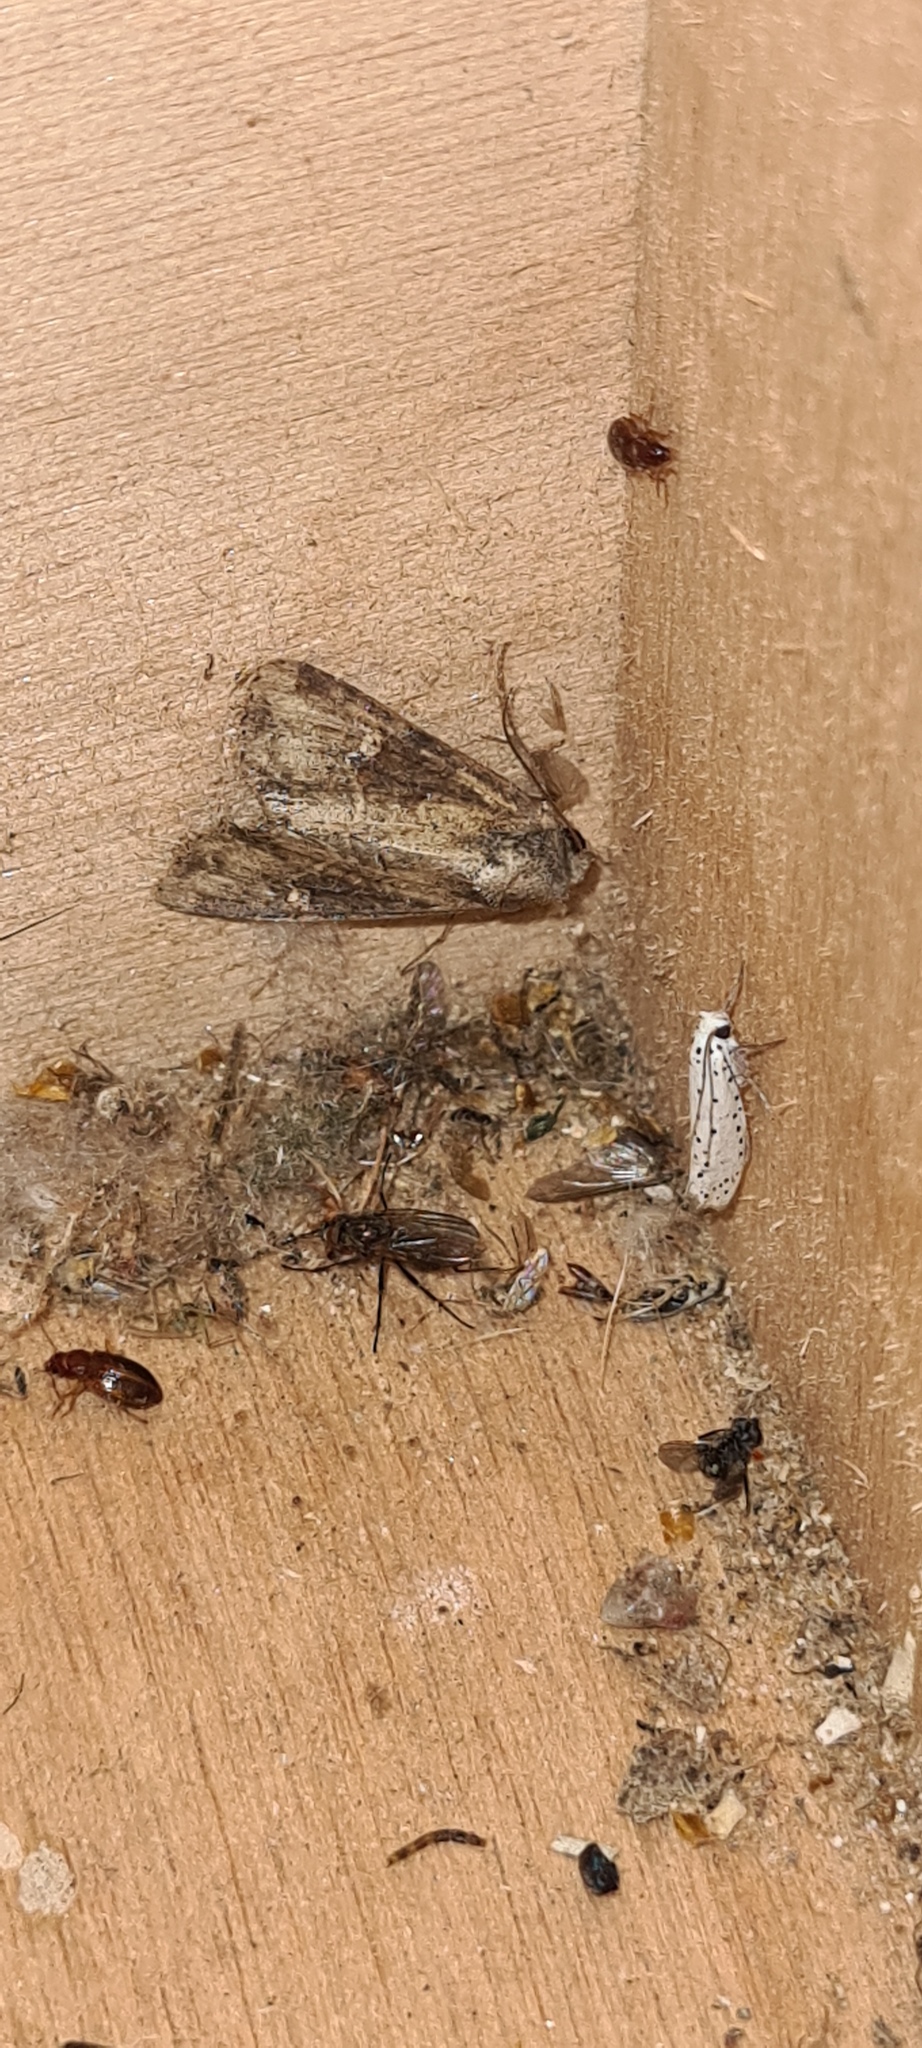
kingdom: Animalia
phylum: Arthropoda
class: Insecta
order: Lepidoptera
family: Noctuidae
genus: Mesapamea
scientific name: Mesapamea
